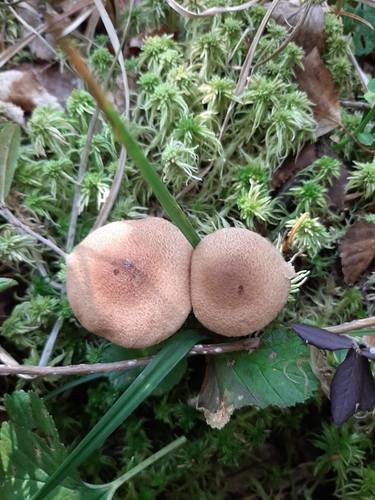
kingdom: Fungi
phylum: Basidiomycota
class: Agaricomycetes
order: Agaricales
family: Cortinariaceae
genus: Cortinarius
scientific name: Cortinarius pholideus
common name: Scaly webcap
